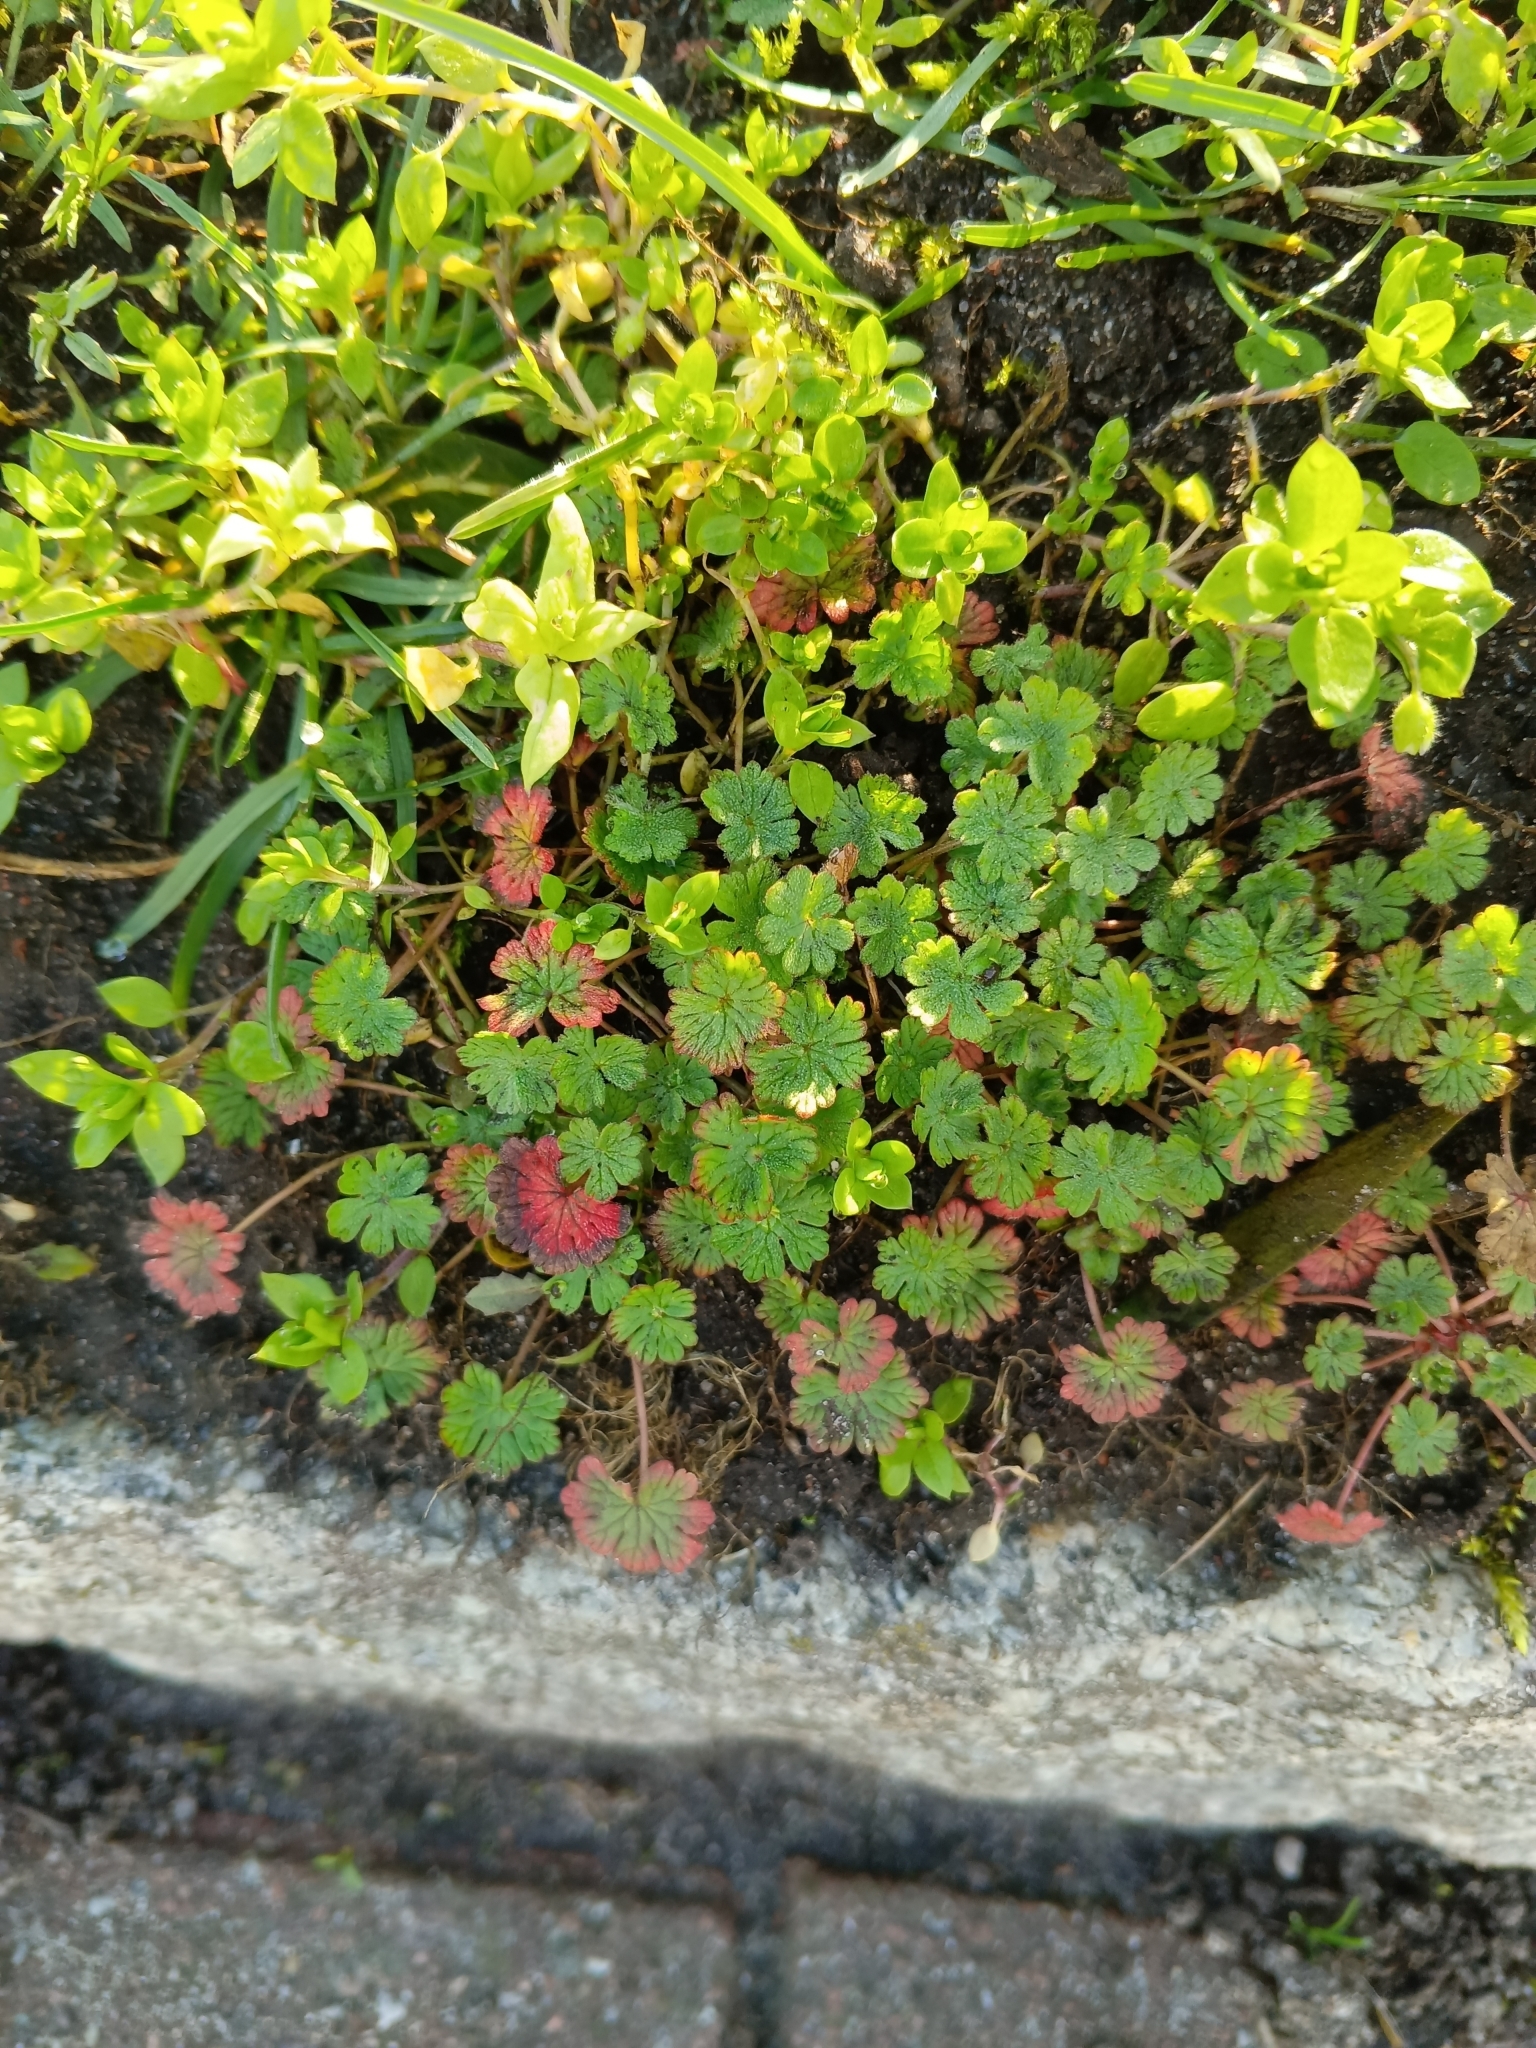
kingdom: Plantae
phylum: Tracheophyta
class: Magnoliopsida
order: Geraniales
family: Geraniaceae
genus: Geranium
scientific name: Geranium pusillum
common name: Small geranium
